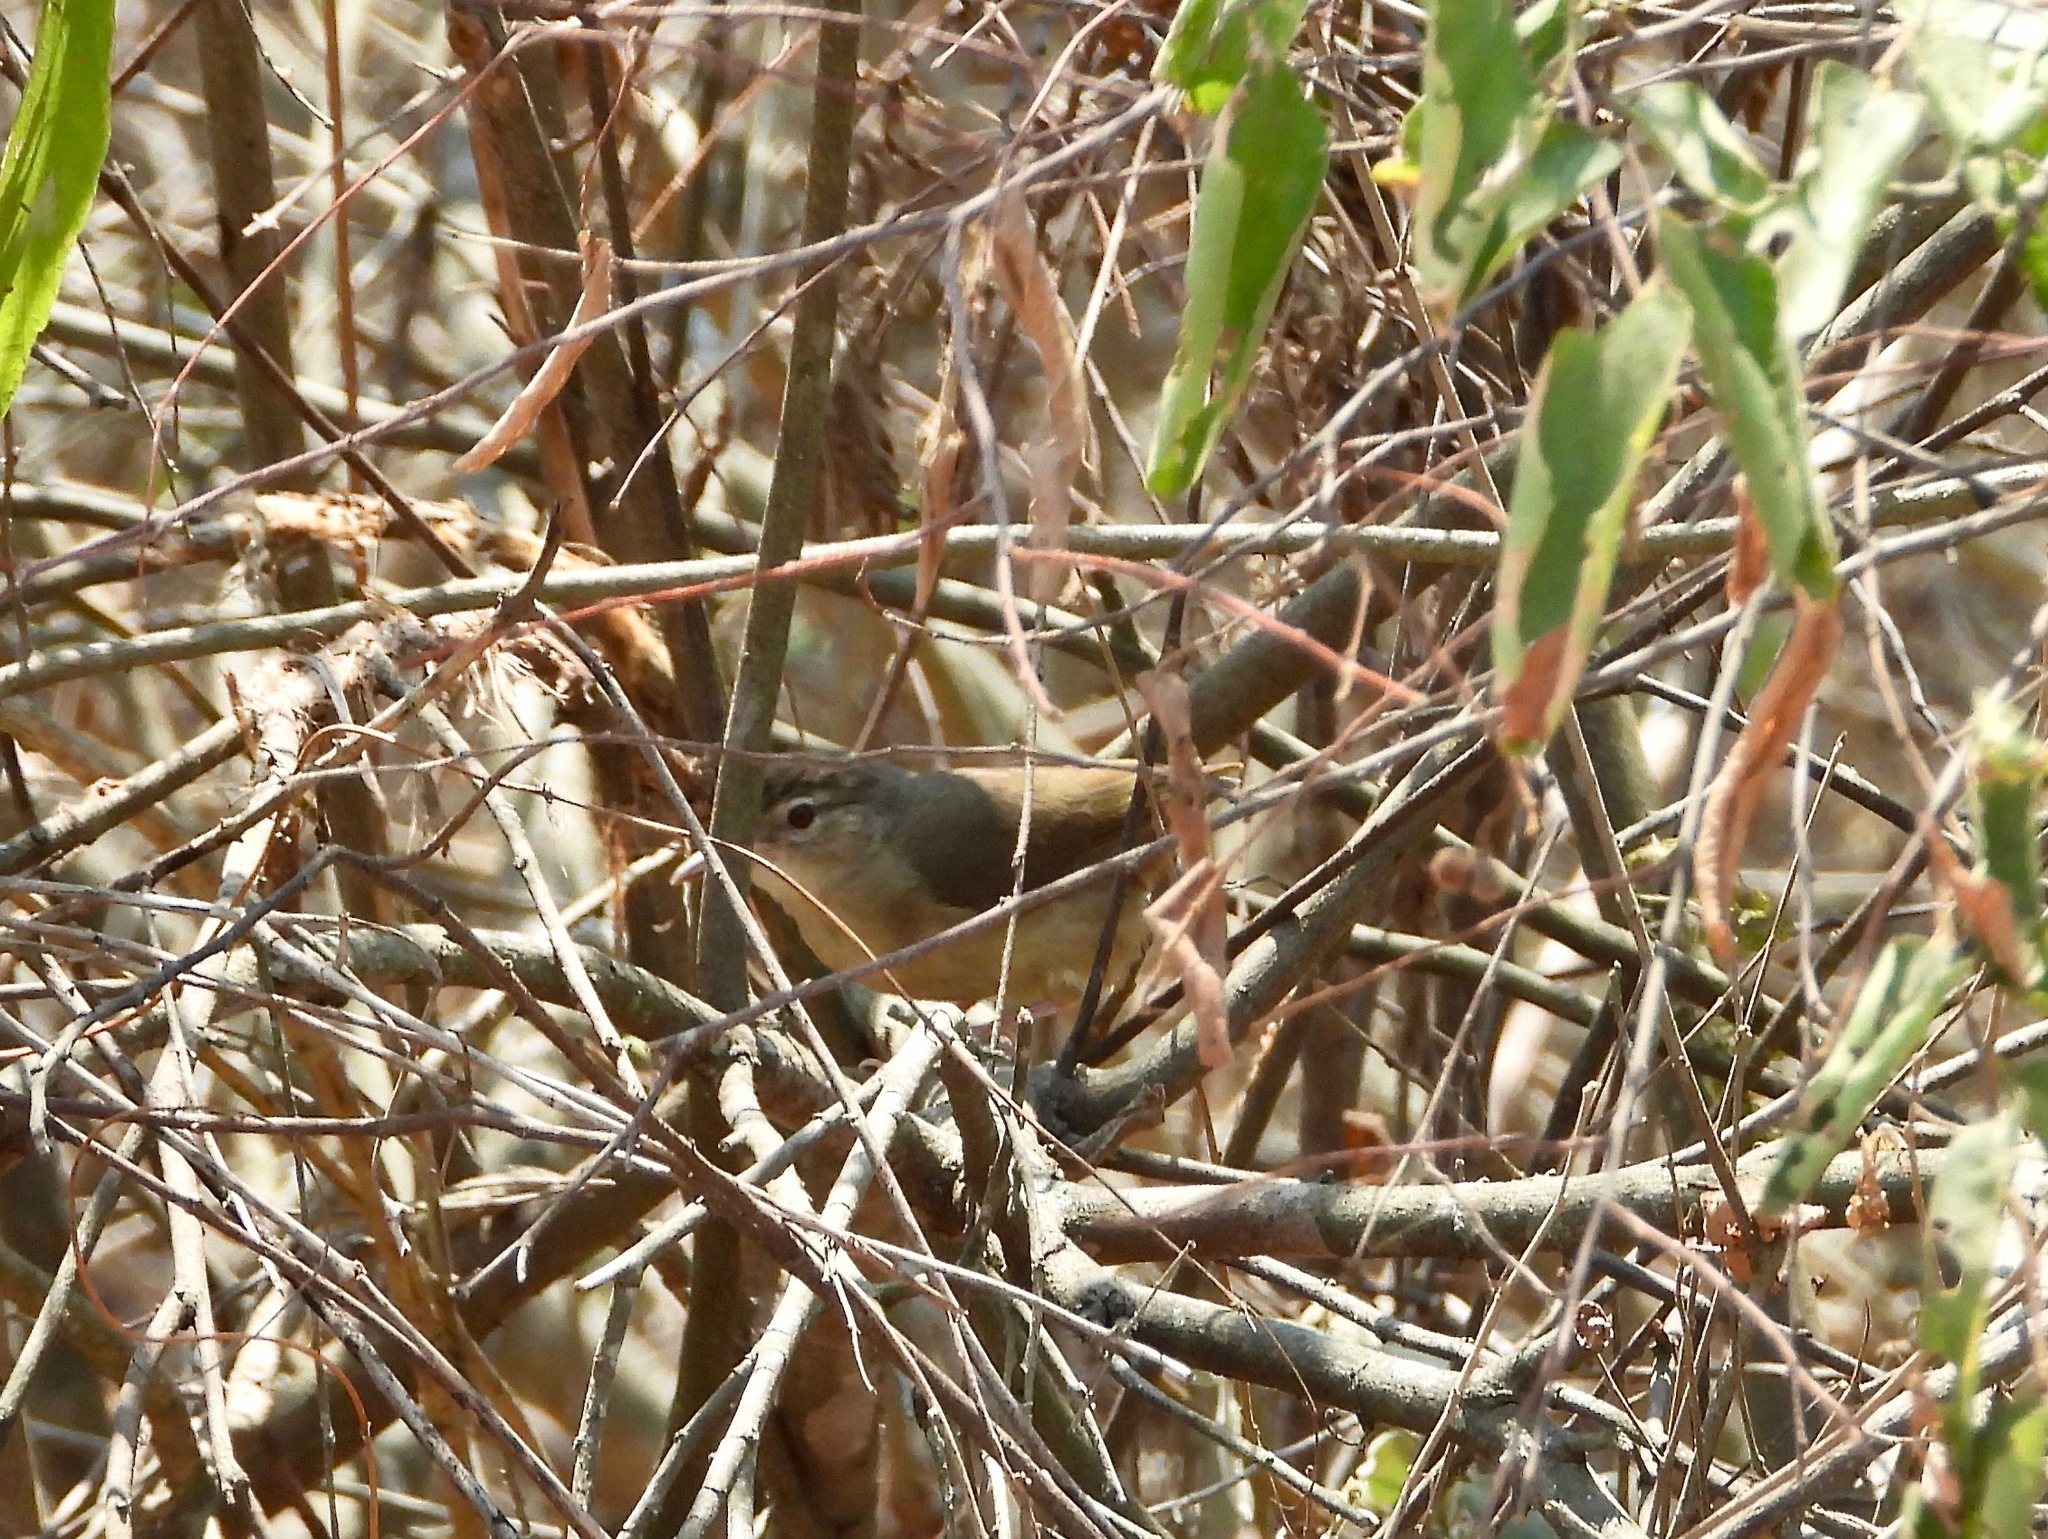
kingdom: Animalia
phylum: Chordata
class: Aves
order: Passeriformes
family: Pycnonotidae
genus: Phyllastrephus
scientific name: Phyllastrephus fulviventris
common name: Pale-olive greenbul
